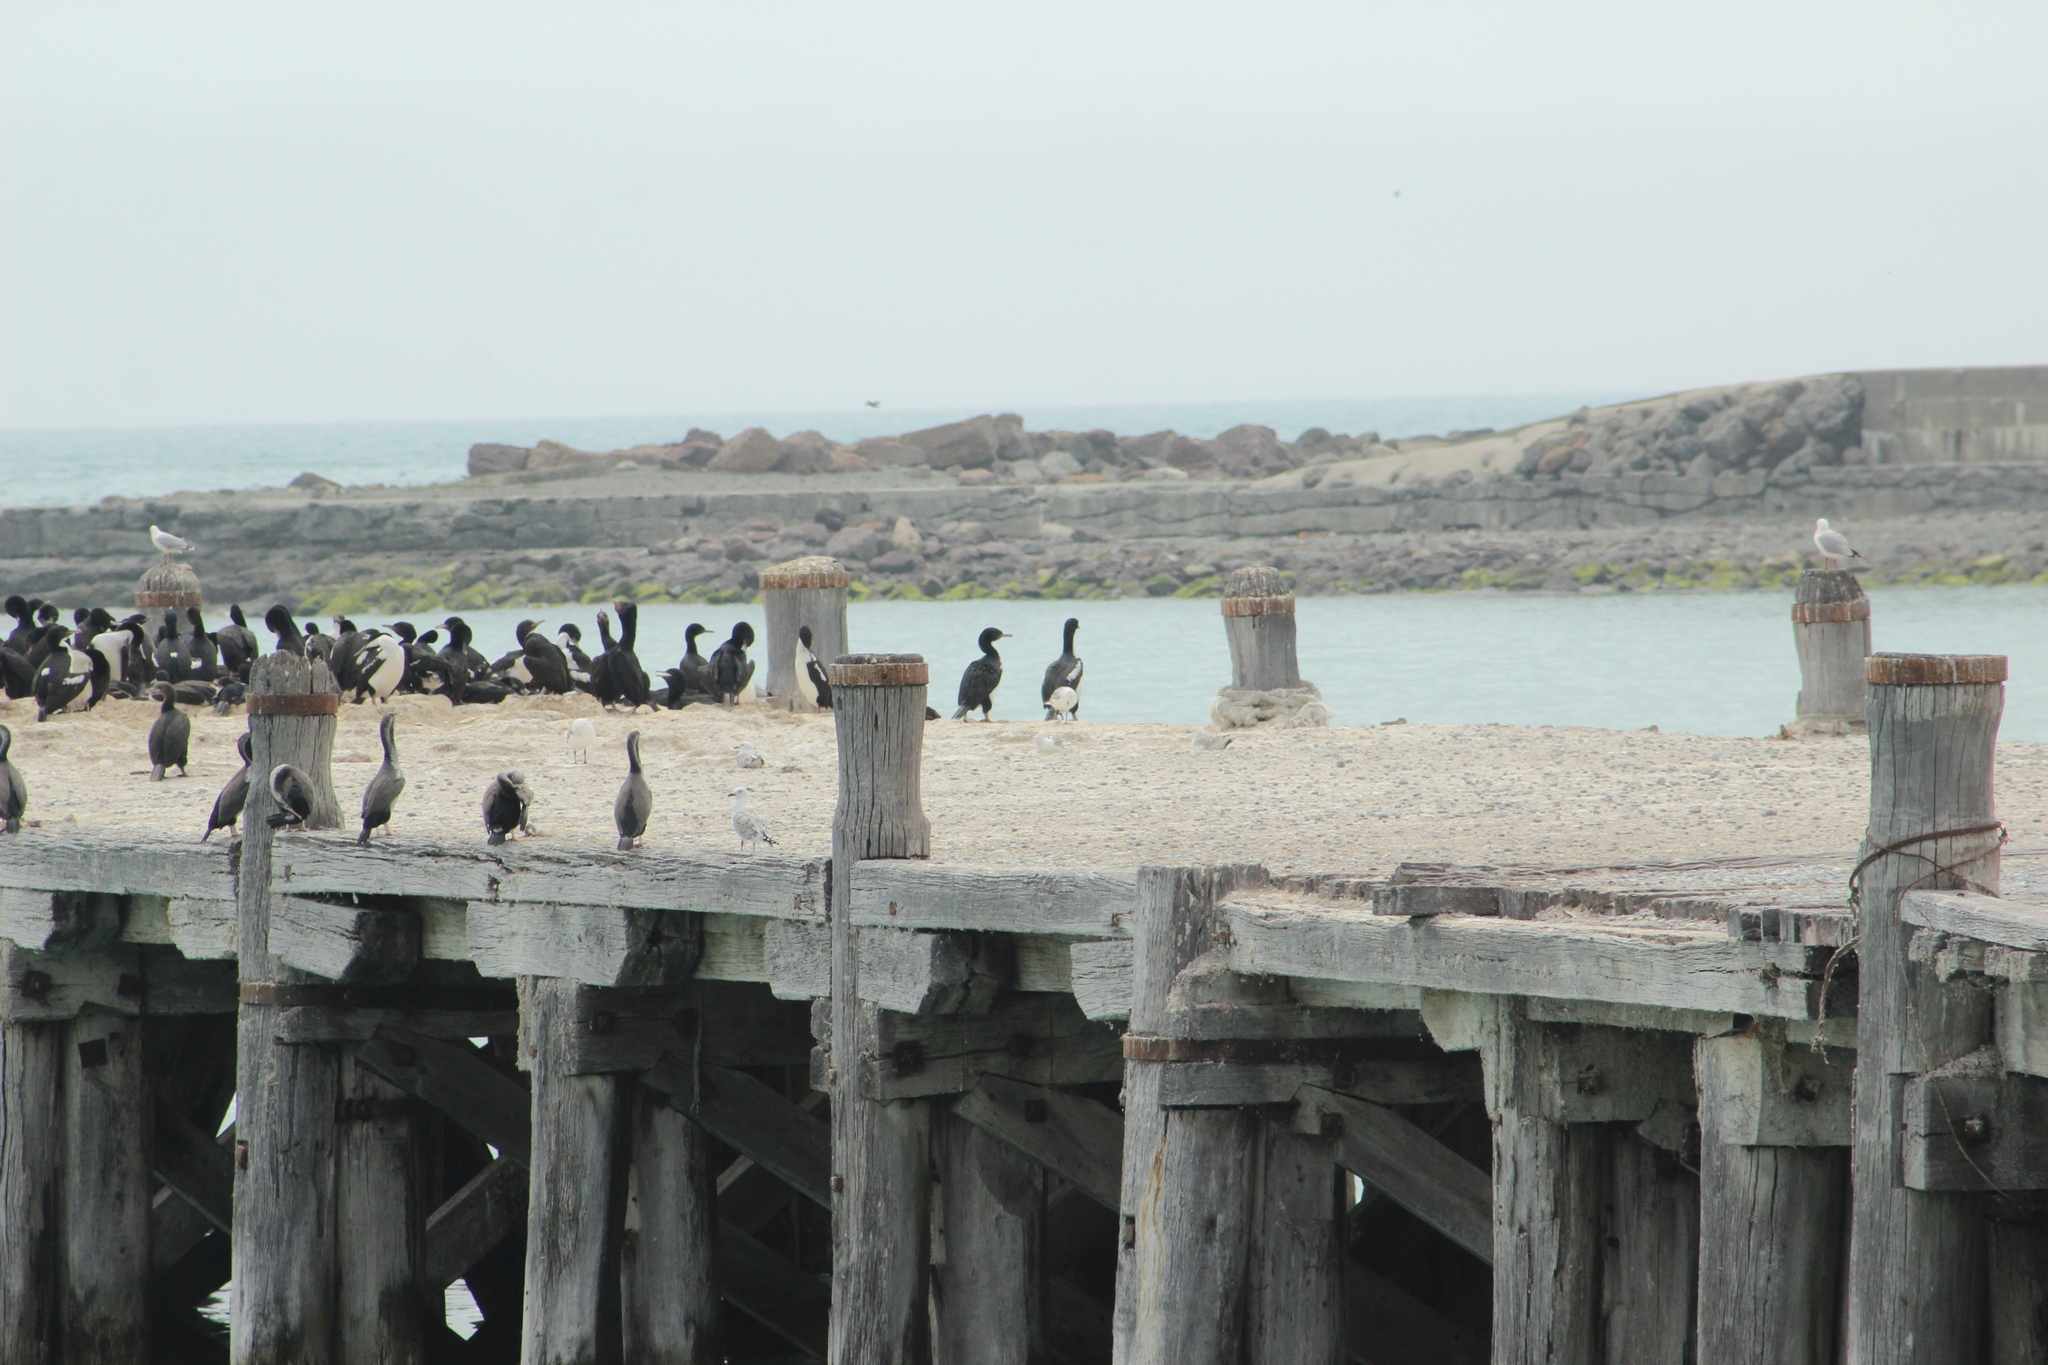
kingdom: Animalia
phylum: Chordata
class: Aves
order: Suliformes
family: Phalacrocoracidae
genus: Phalacrocorax
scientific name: Phalacrocorax punctatus
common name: Spotted shag
